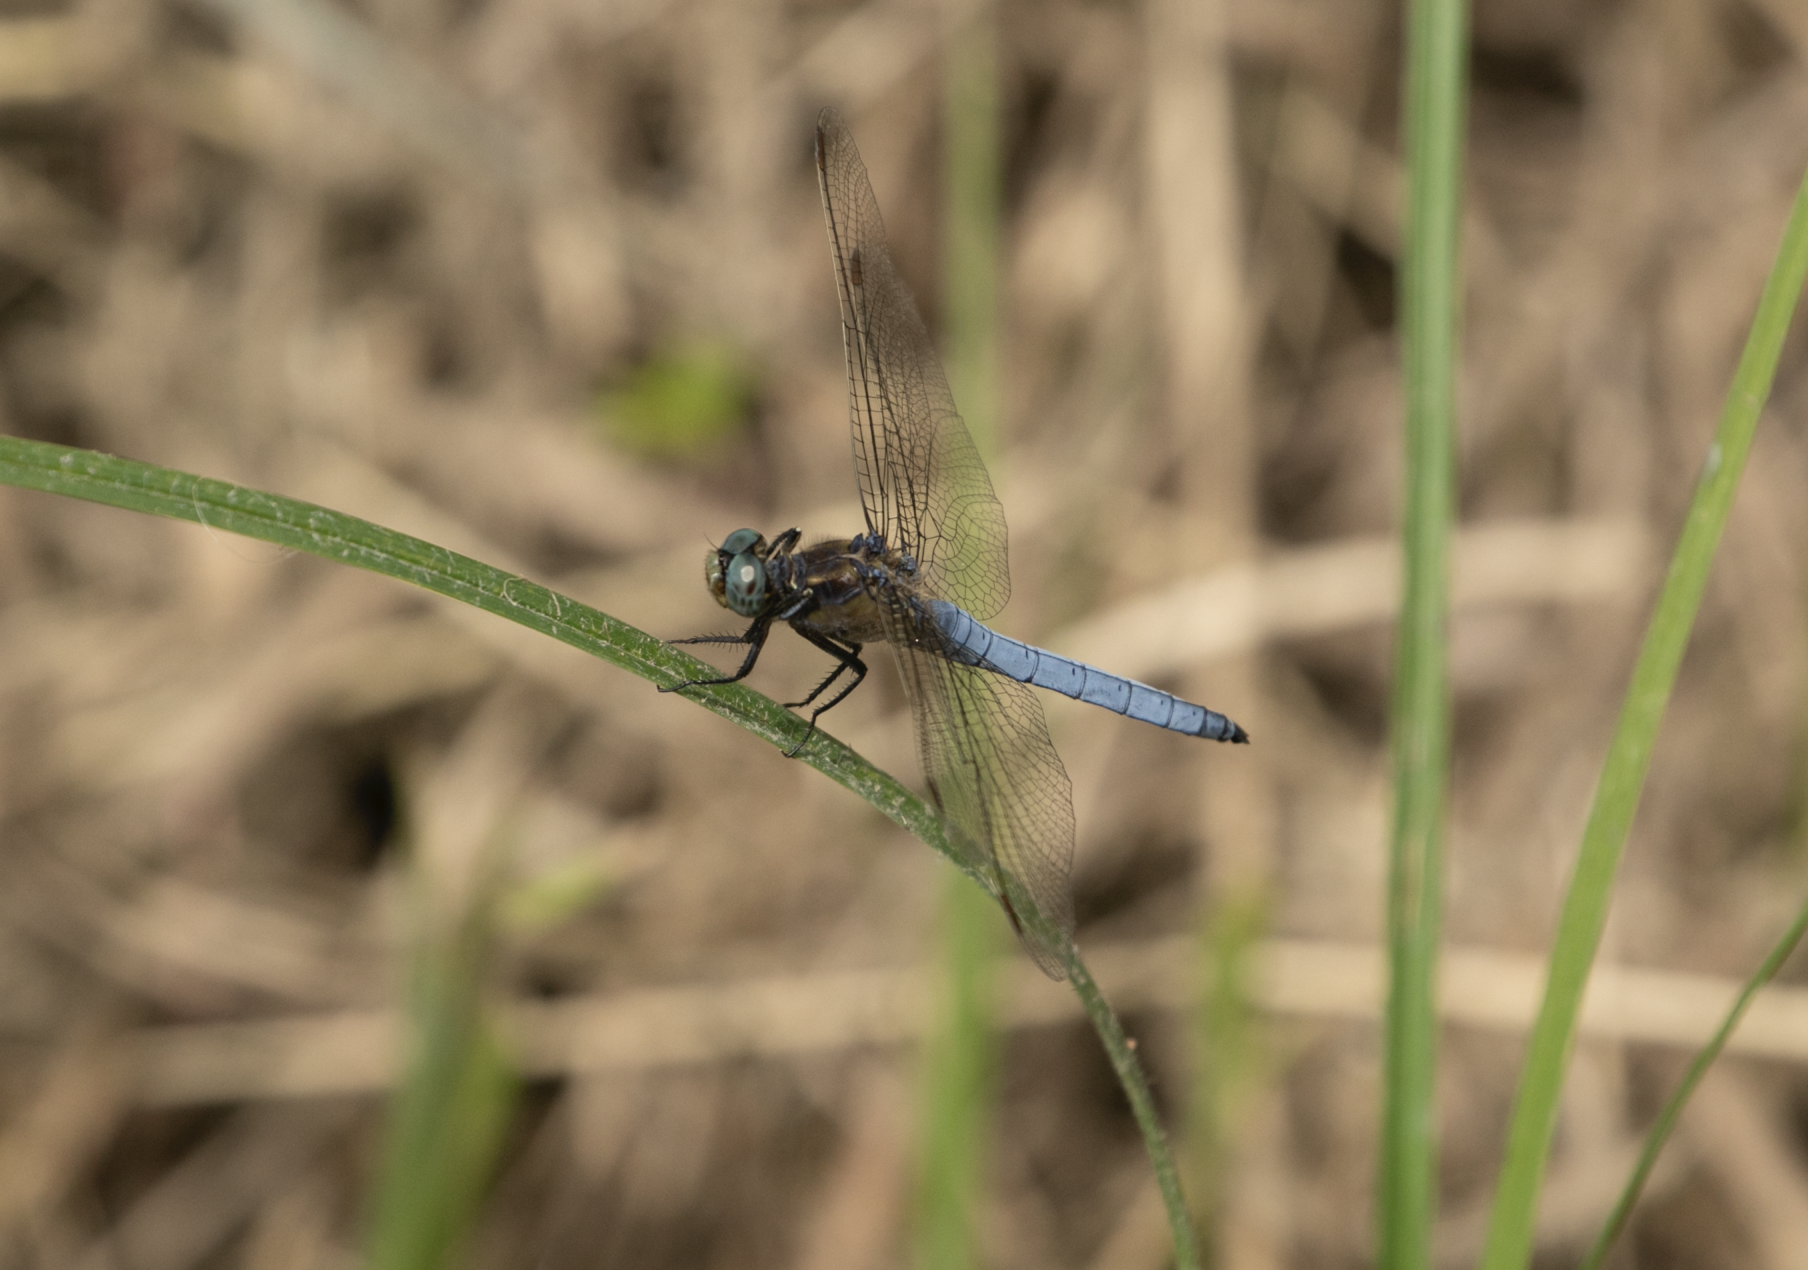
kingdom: Animalia
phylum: Arthropoda
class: Insecta
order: Odonata
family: Libellulidae
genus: Orthetrum
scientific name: Orthetrum coerulescens
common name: Keeled skimmer
